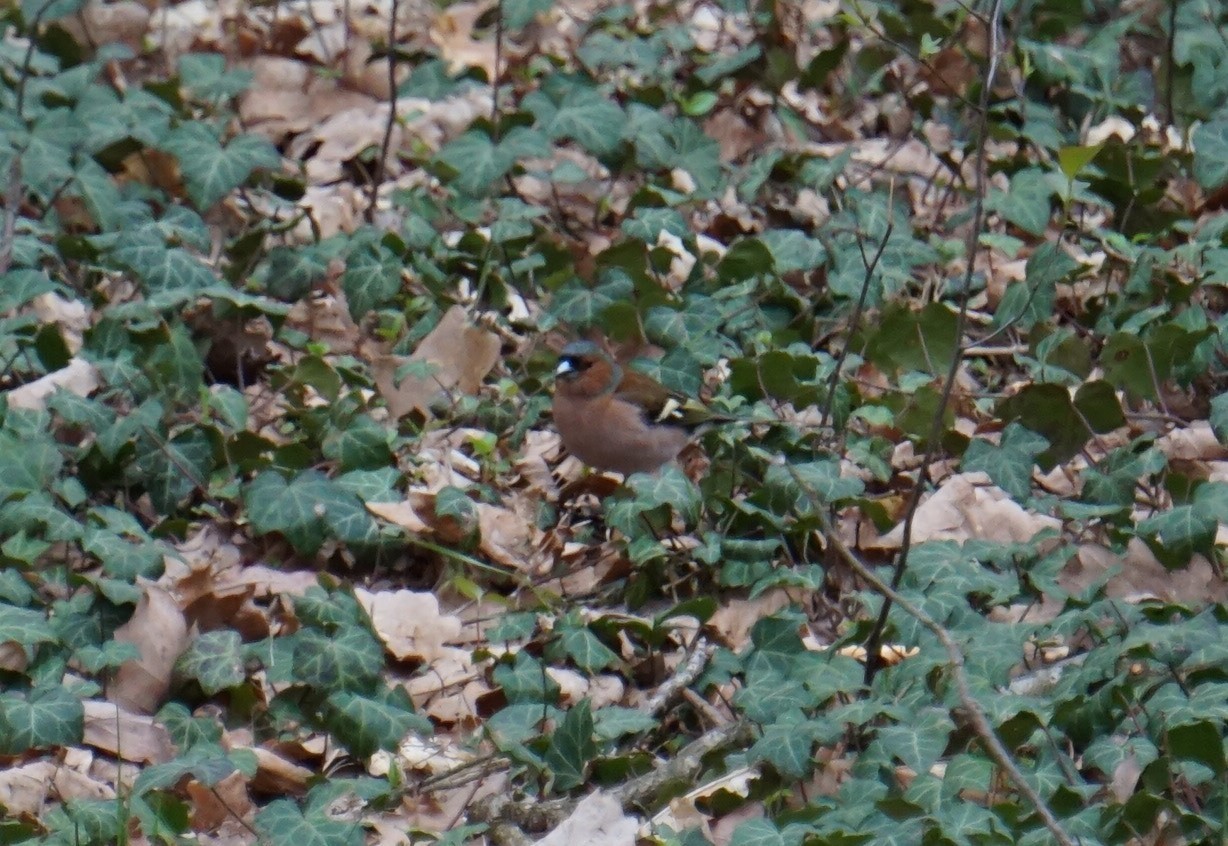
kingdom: Animalia
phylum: Chordata
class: Aves
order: Passeriformes
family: Fringillidae
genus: Fringilla
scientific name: Fringilla coelebs
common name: Common chaffinch
